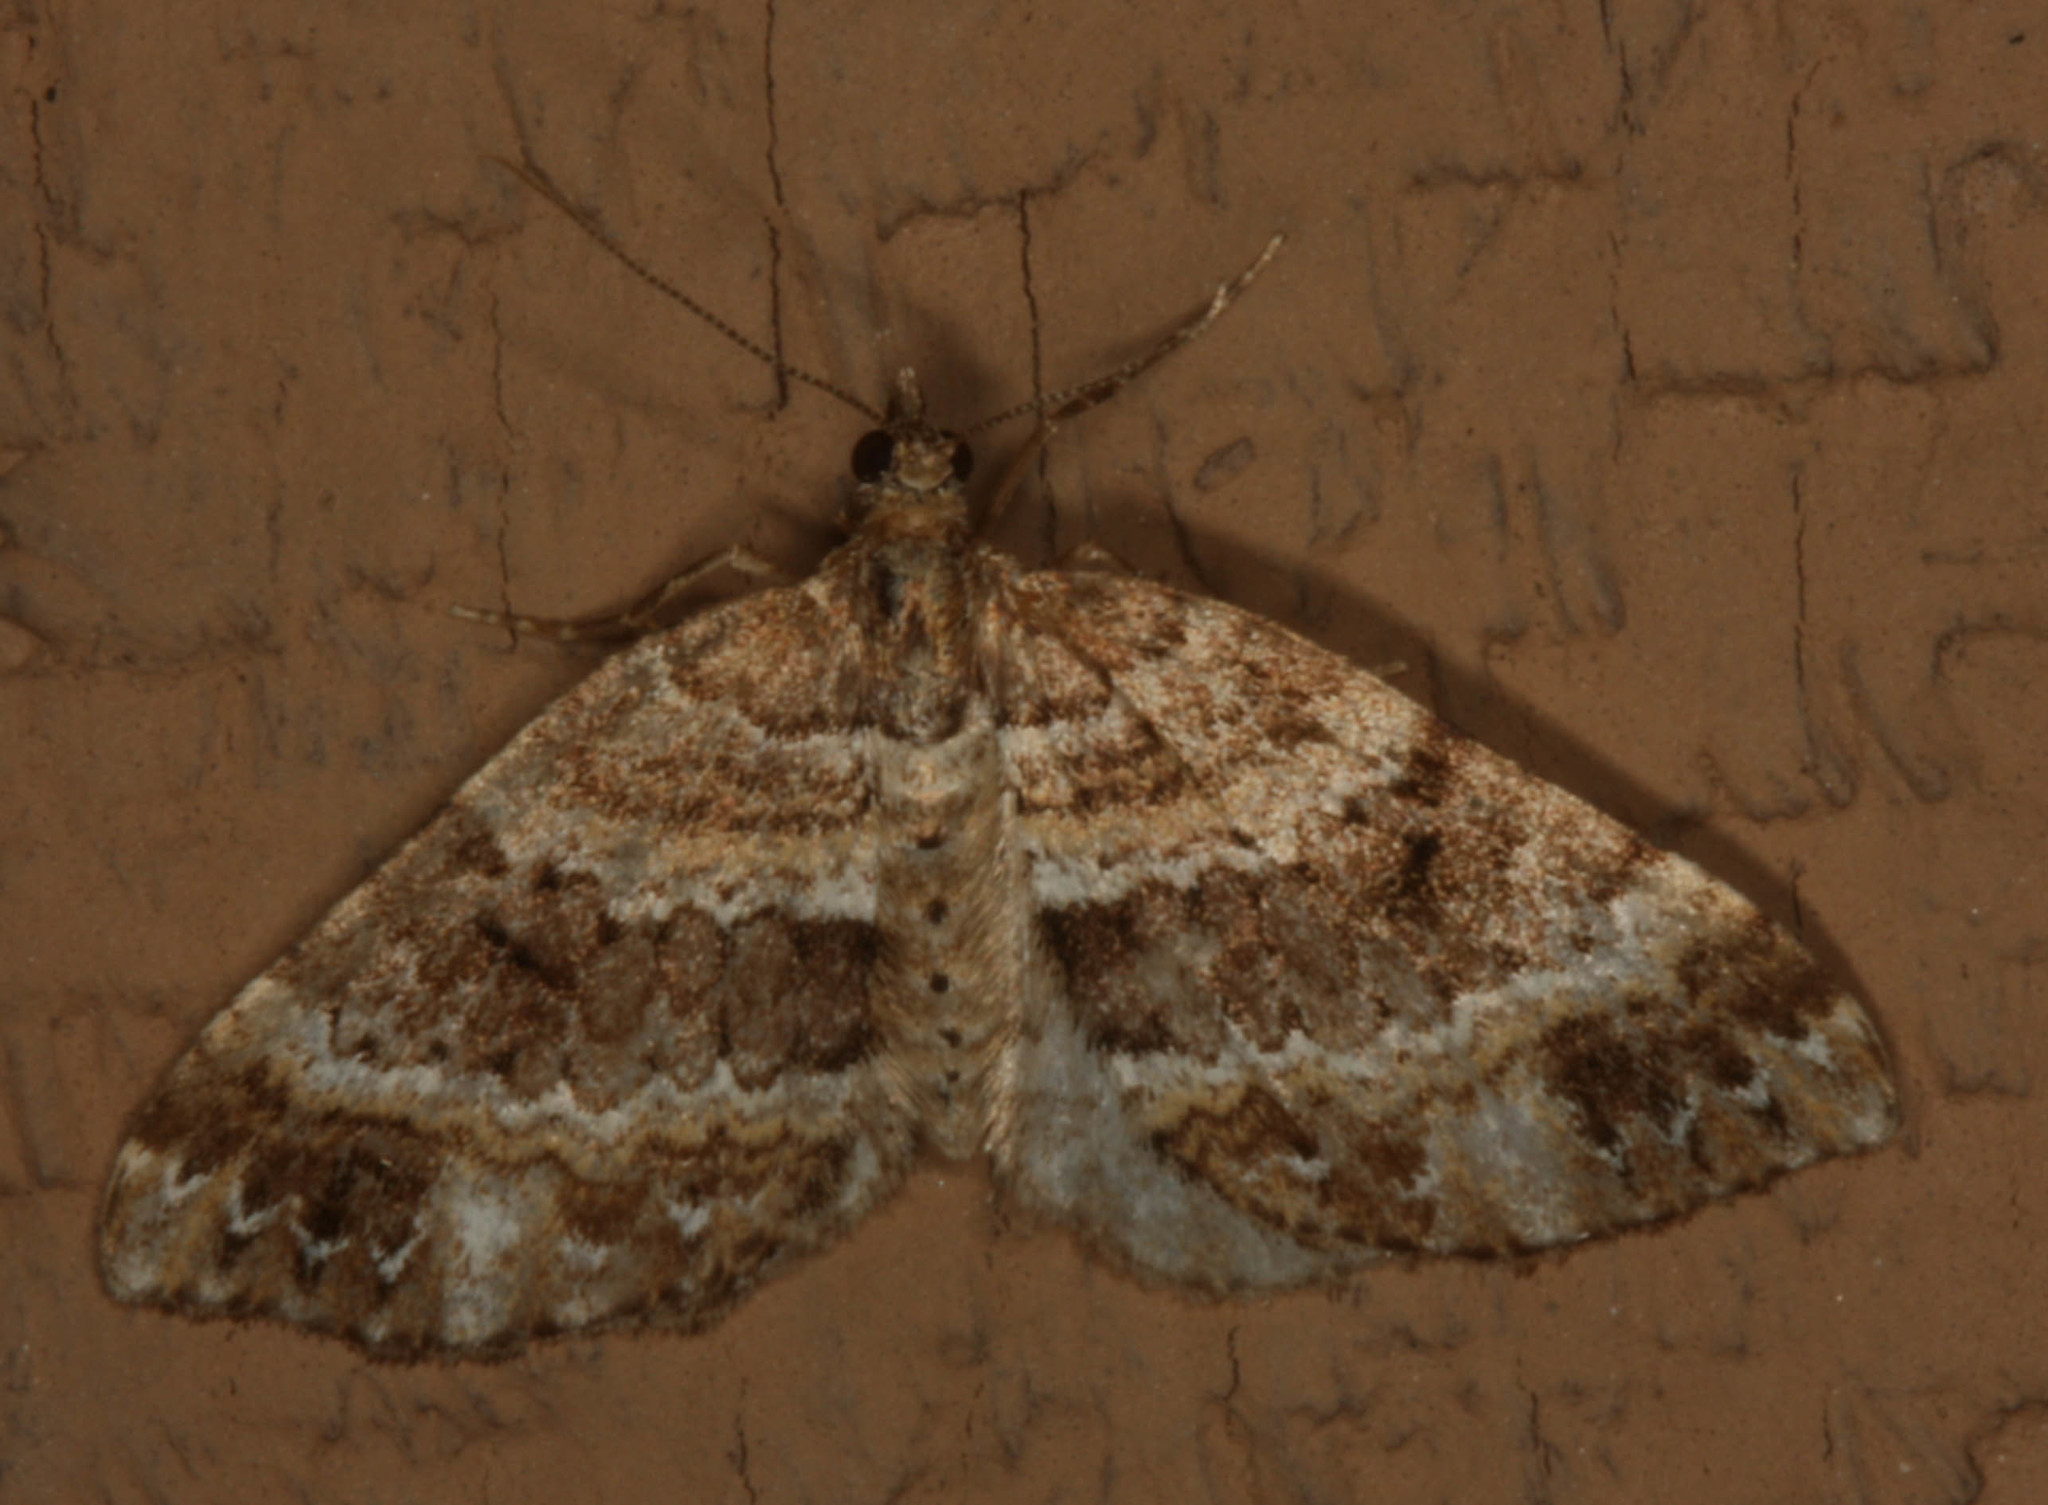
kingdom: Animalia
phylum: Arthropoda
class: Insecta
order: Lepidoptera
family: Geometridae
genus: Martania
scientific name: Martania
